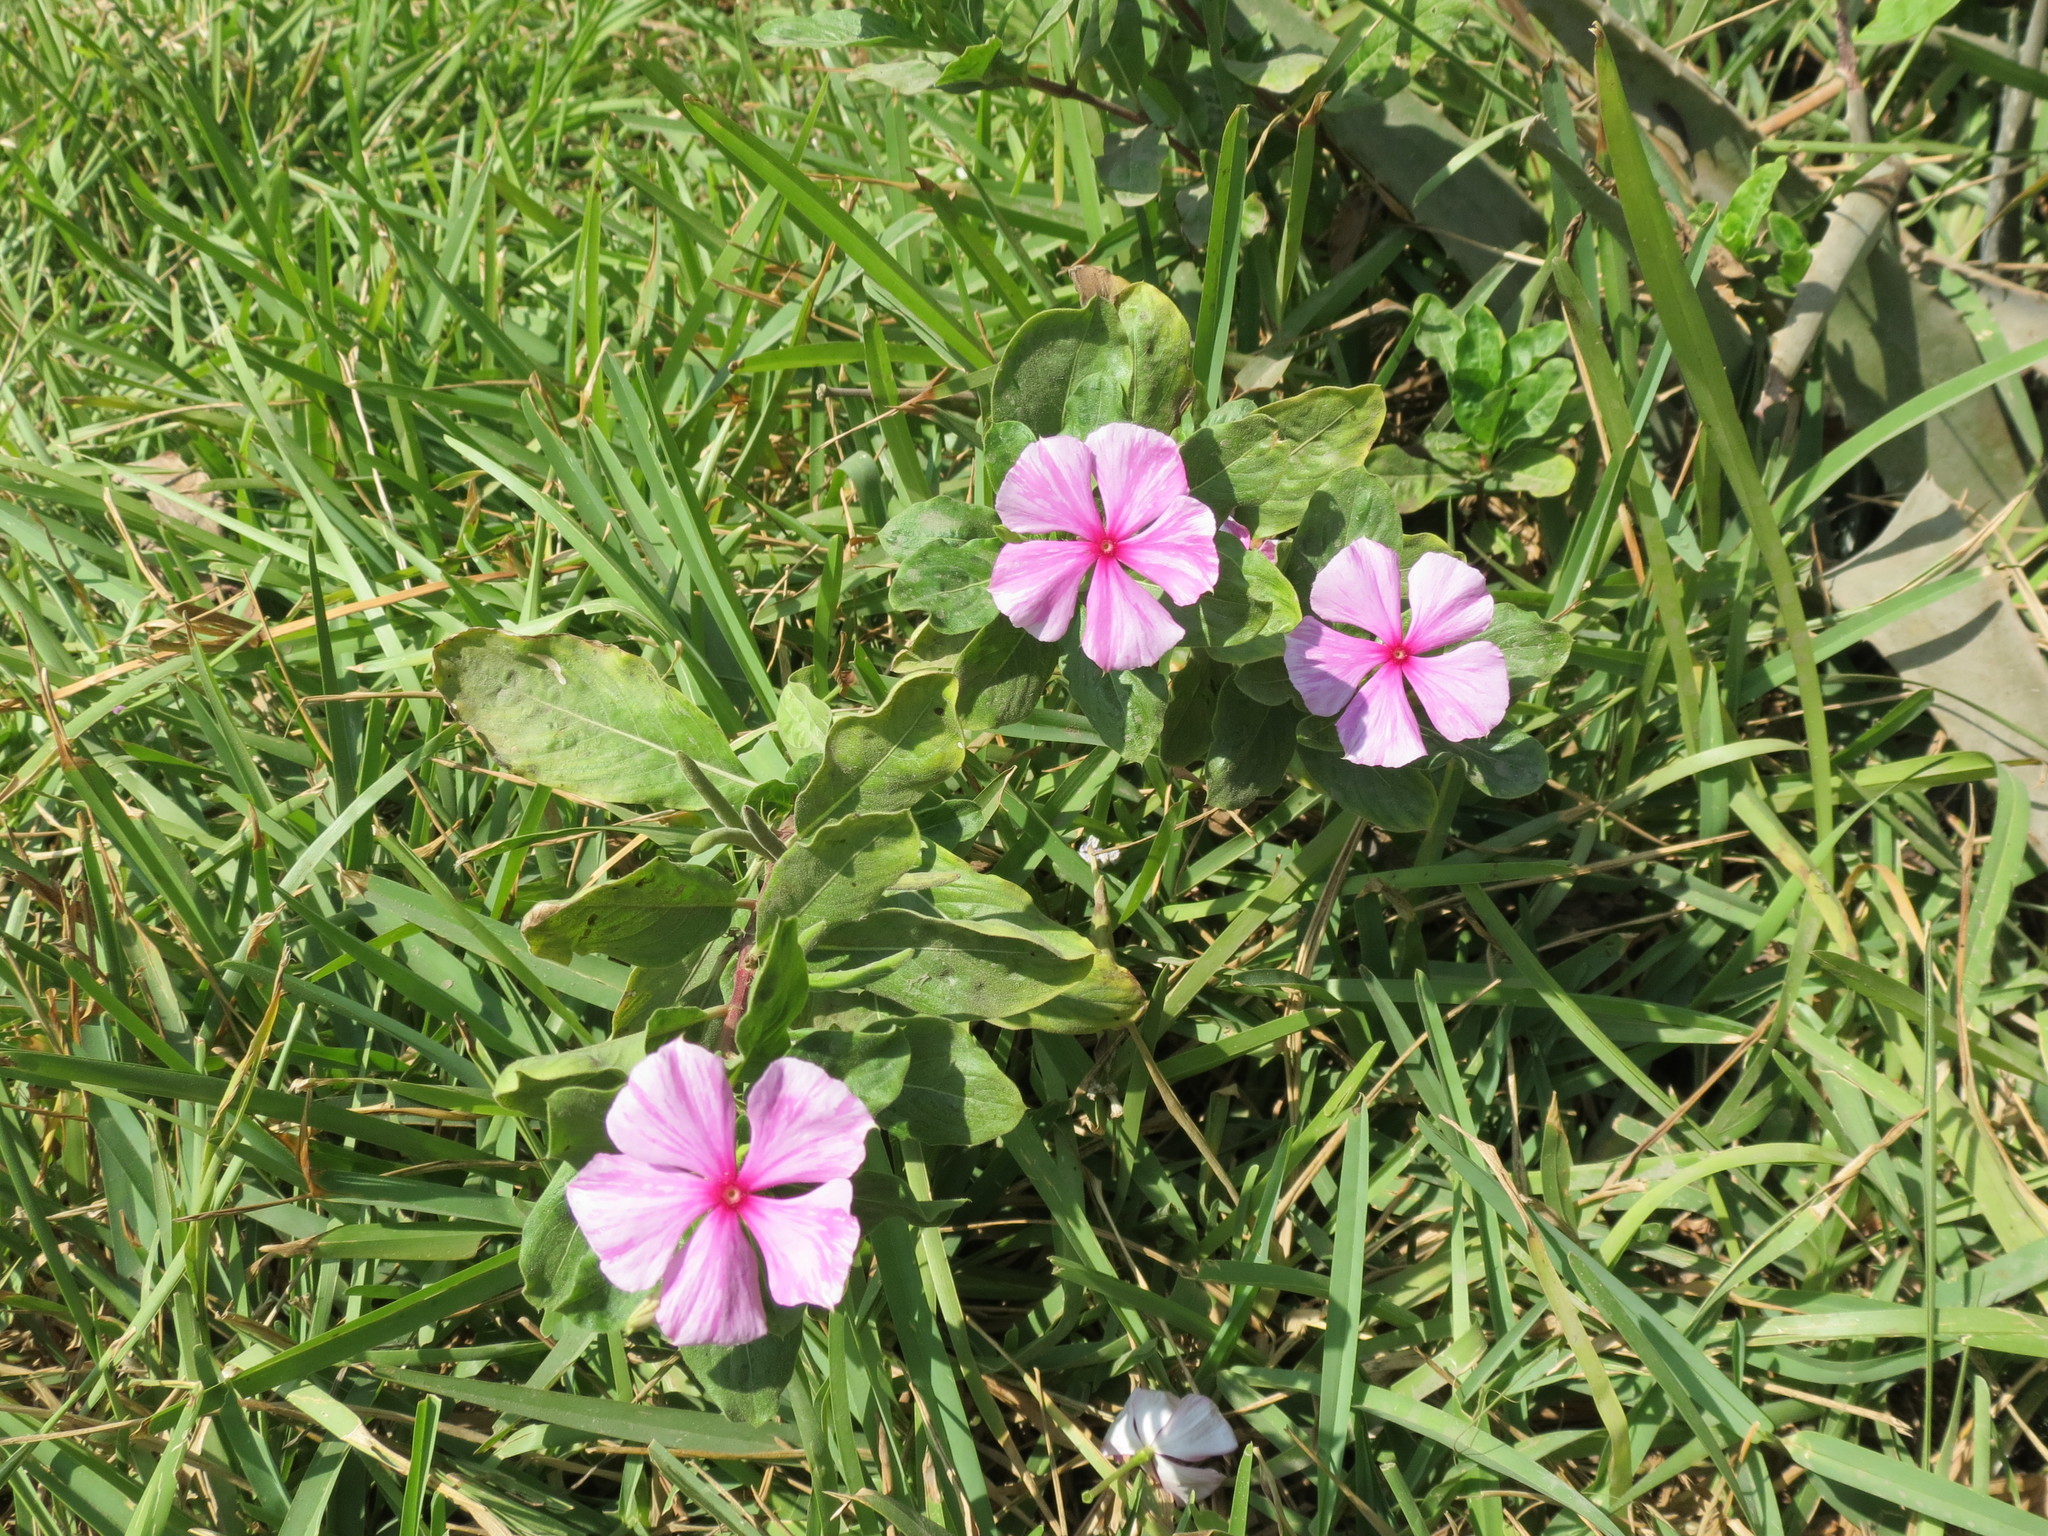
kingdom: Plantae
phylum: Tracheophyta
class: Magnoliopsida
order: Gentianales
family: Apocynaceae
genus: Catharanthus
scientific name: Catharanthus roseus
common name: Madagascar periwinkle
